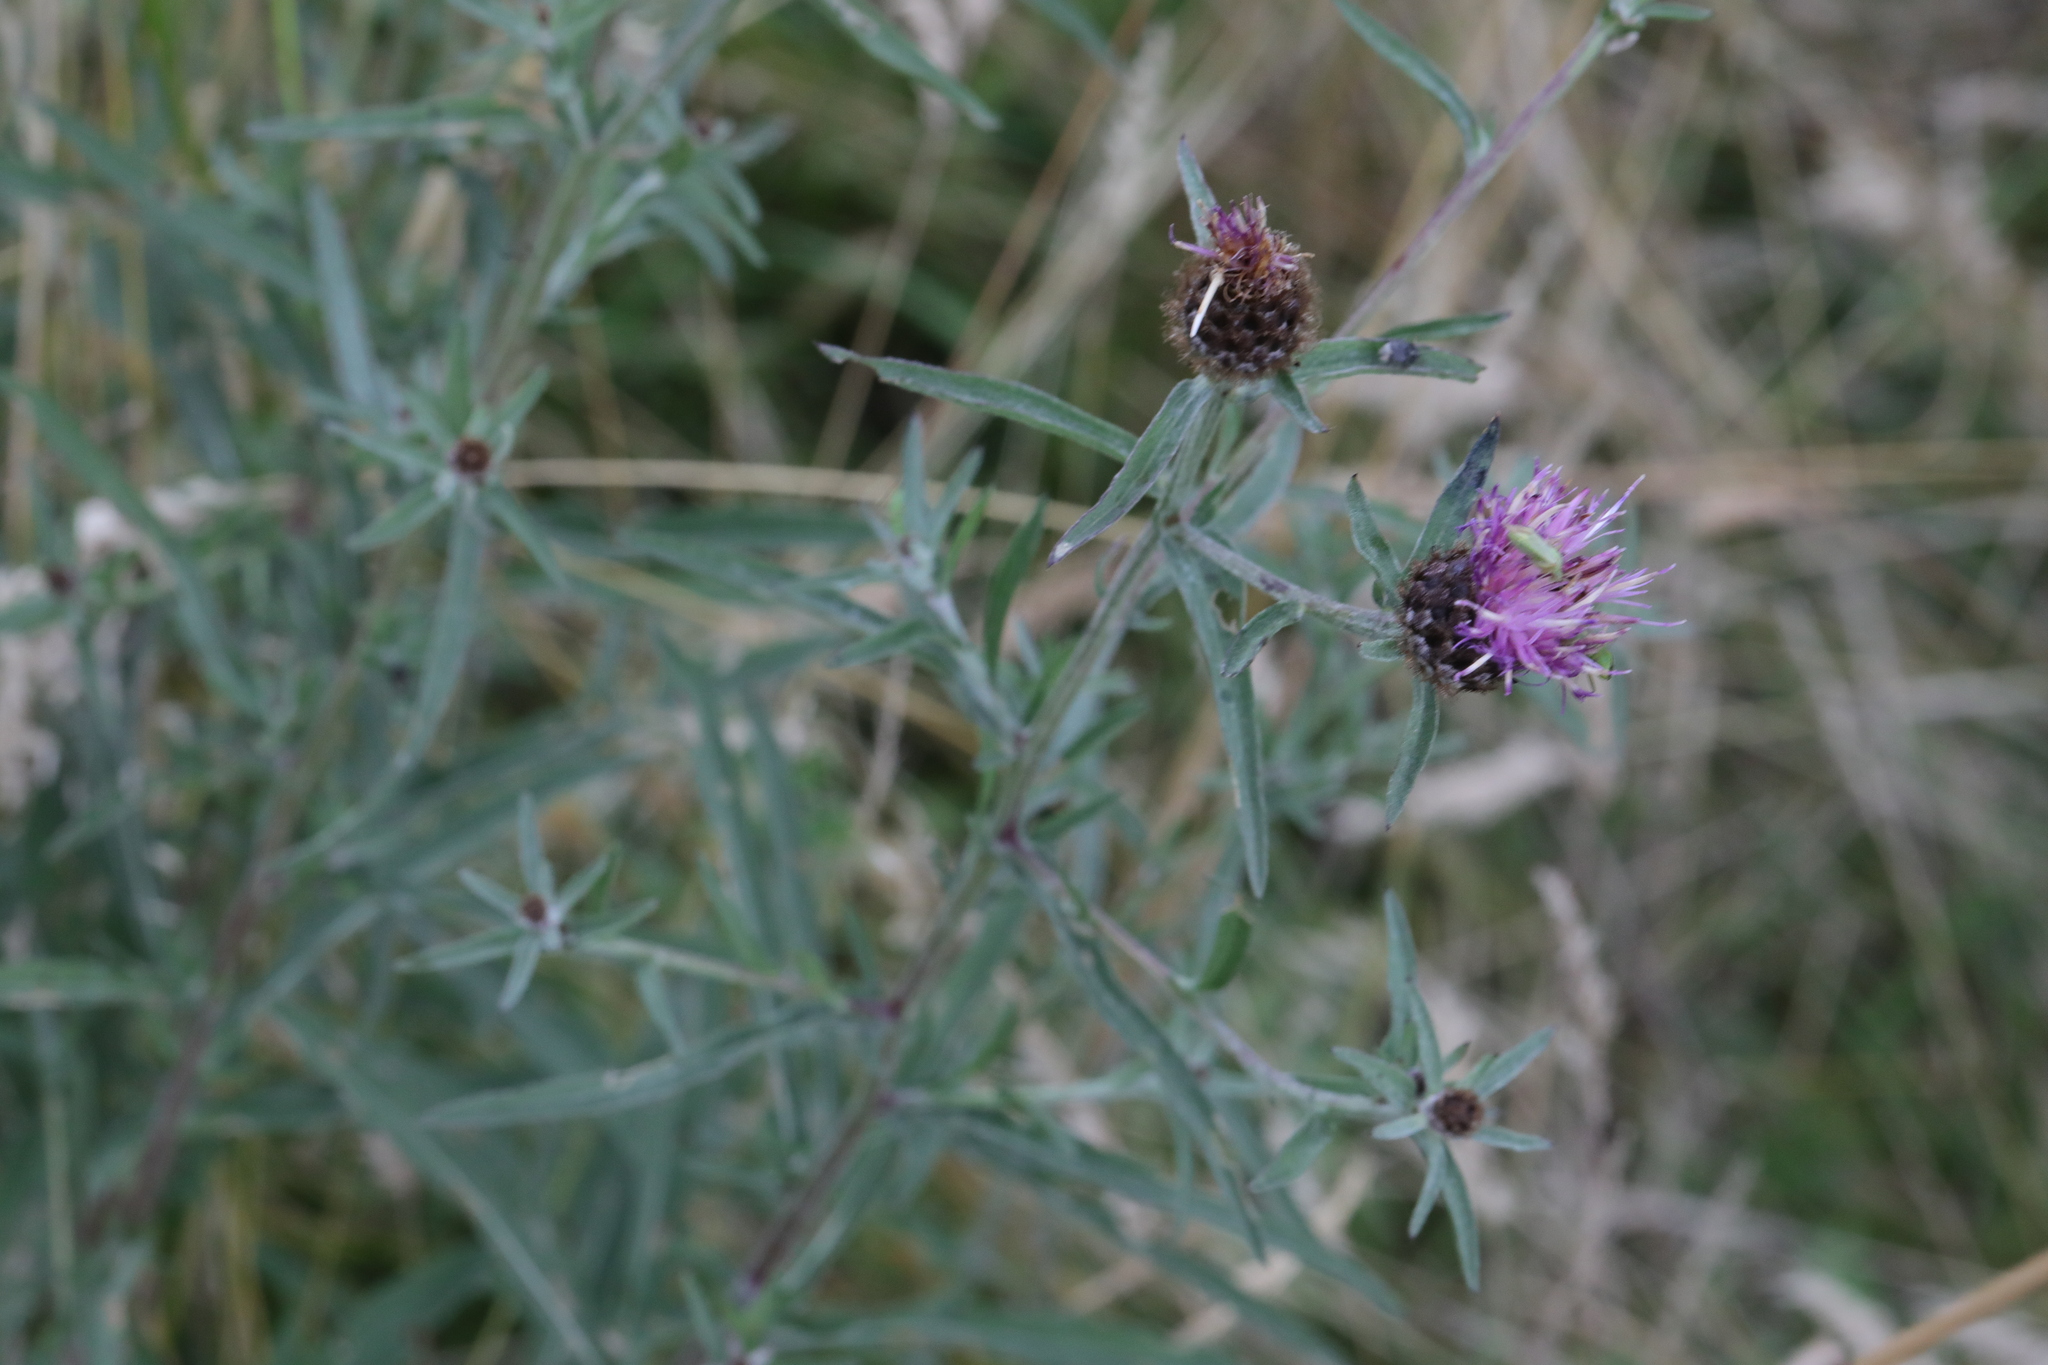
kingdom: Plantae
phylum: Tracheophyta
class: Magnoliopsida
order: Asterales
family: Asteraceae
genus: Centaurea
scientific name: Centaurea nigra
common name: Lesser knapweed
